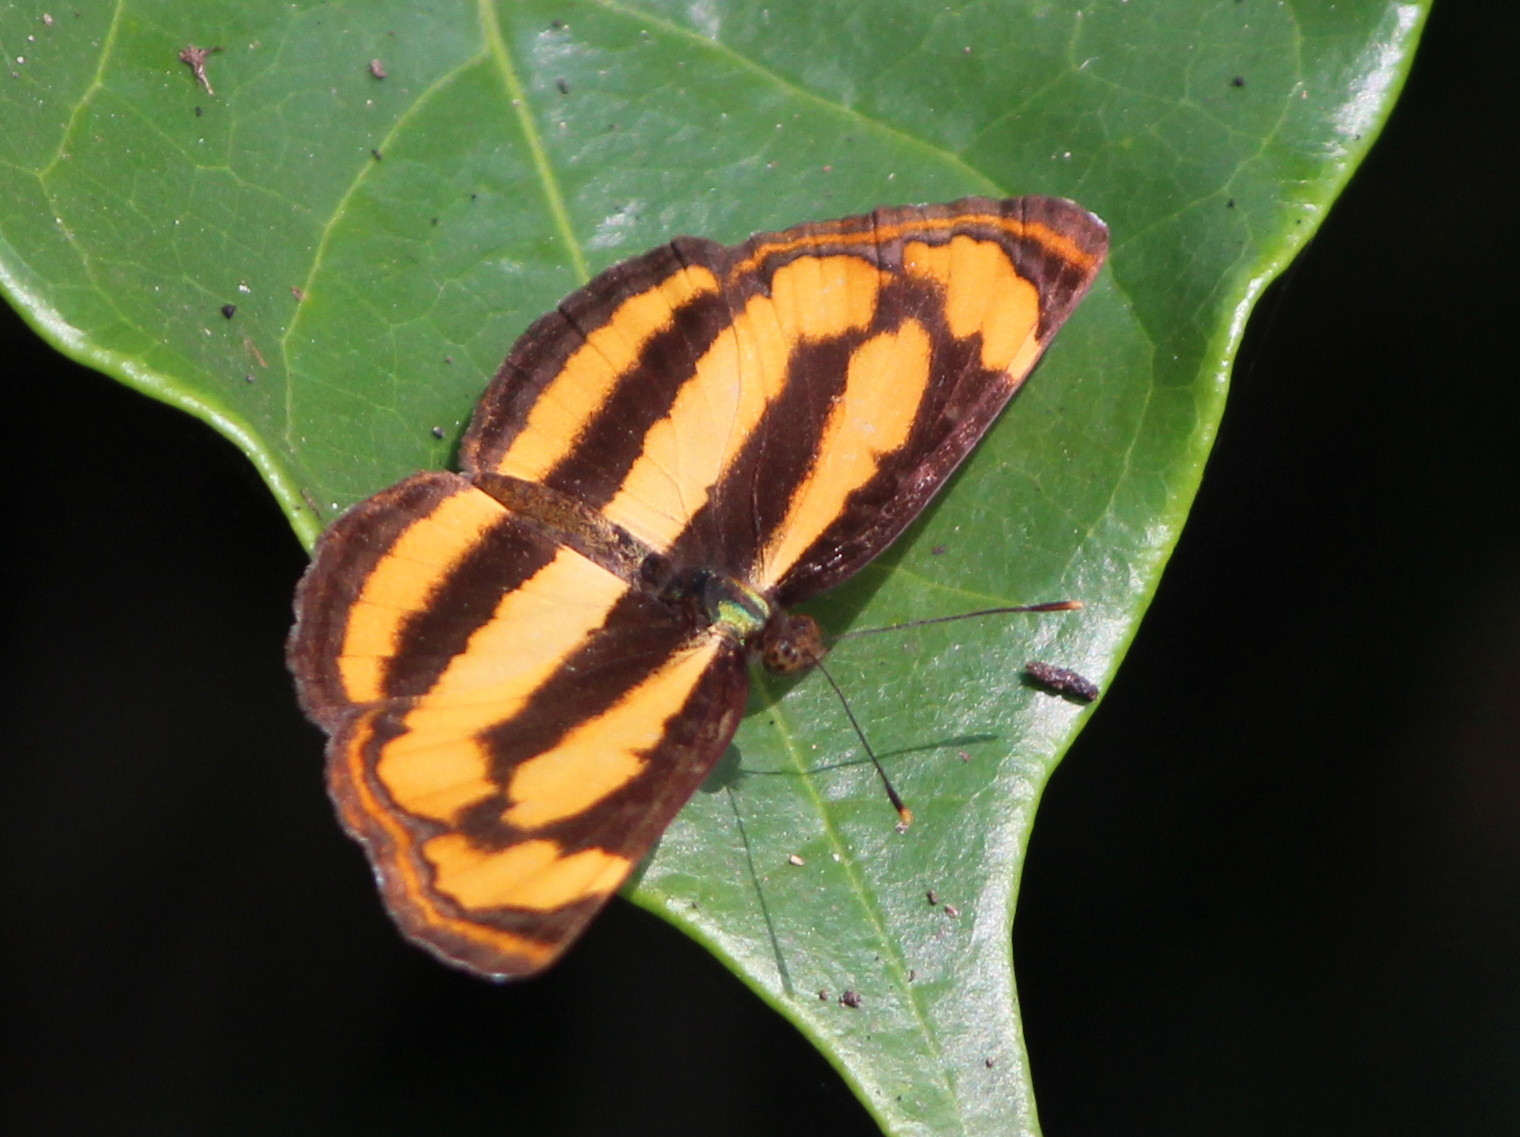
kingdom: Animalia
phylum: Arthropoda
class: Insecta
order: Lepidoptera
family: Nymphalidae
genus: Pantoporia
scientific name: Pantoporia hordonia
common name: Common lascar
